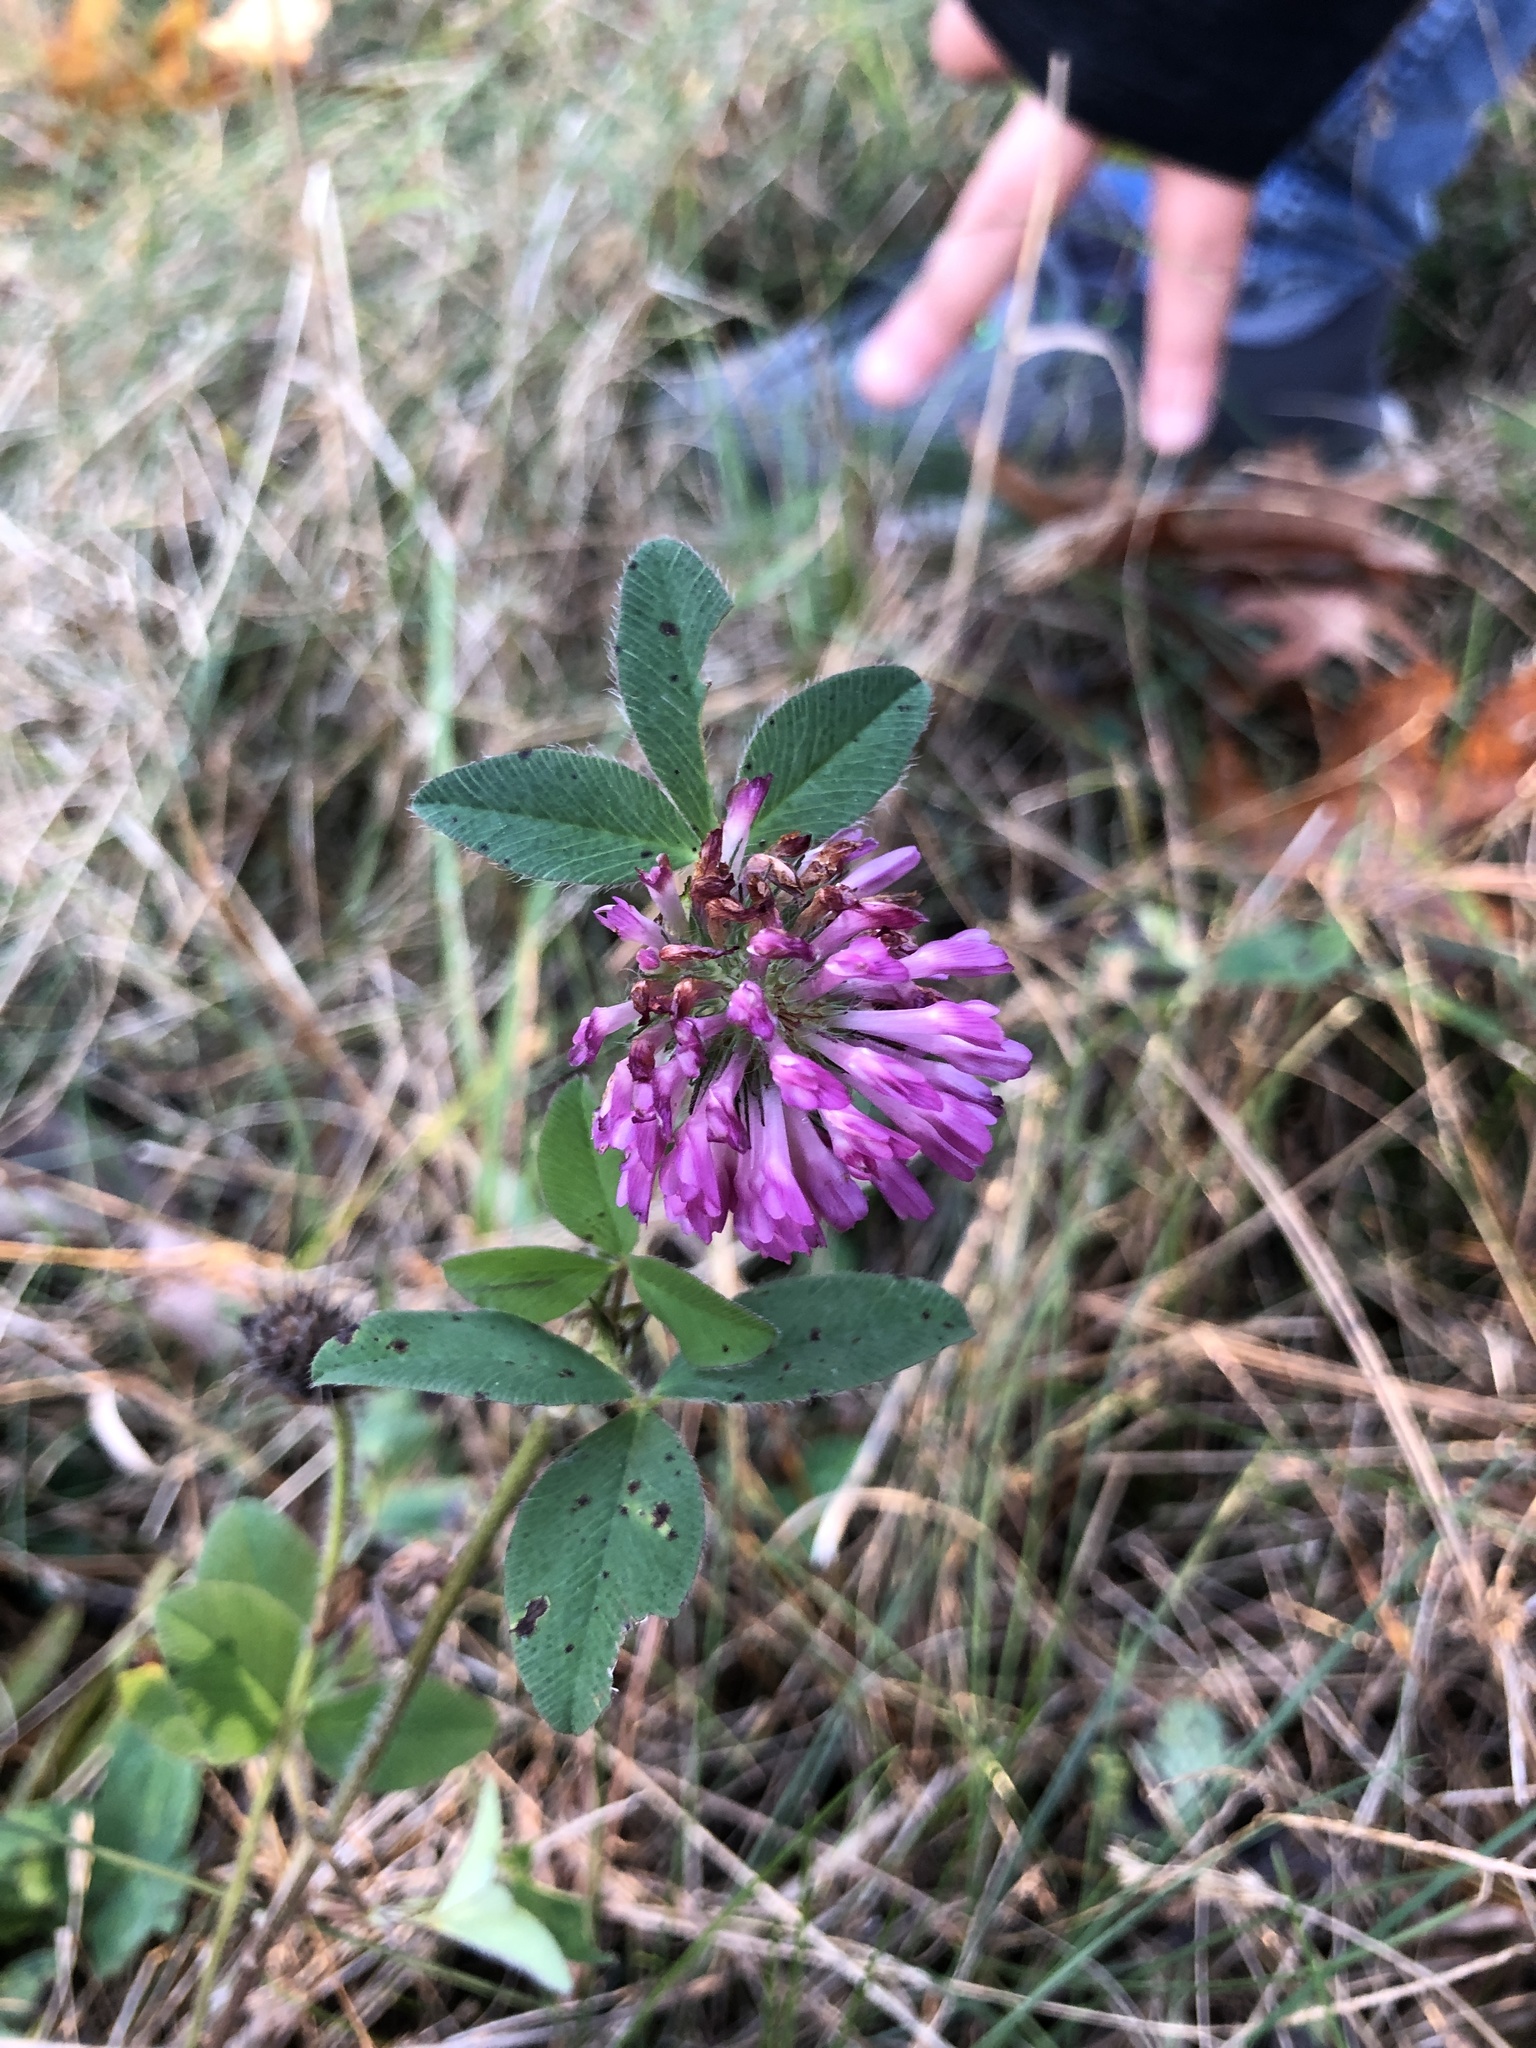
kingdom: Plantae
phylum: Tracheophyta
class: Magnoliopsida
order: Fabales
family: Fabaceae
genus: Trifolium
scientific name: Trifolium pratense
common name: Red clover
